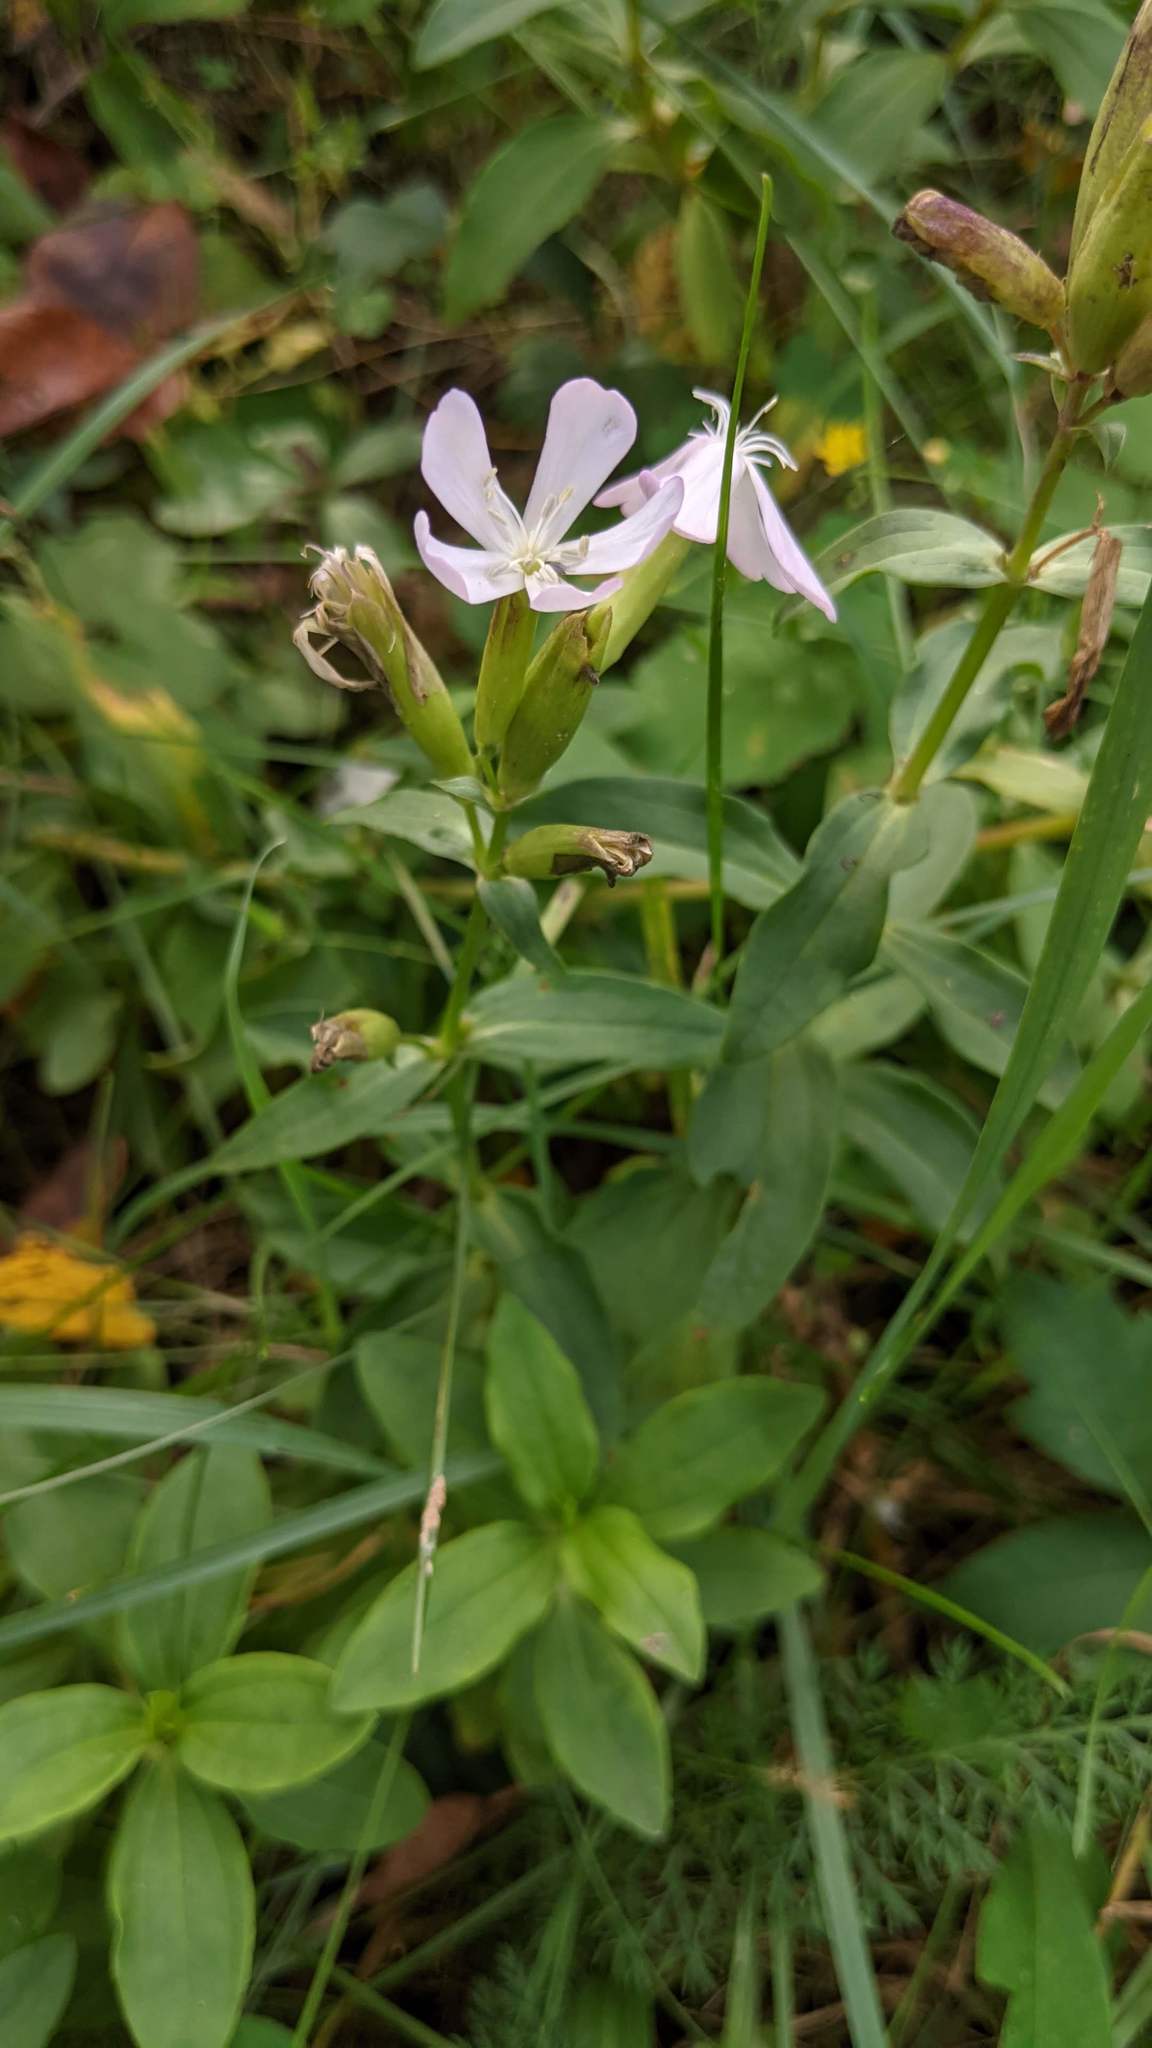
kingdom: Plantae
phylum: Tracheophyta
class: Magnoliopsida
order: Caryophyllales
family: Caryophyllaceae
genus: Saponaria
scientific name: Saponaria officinalis
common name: Soapwort
